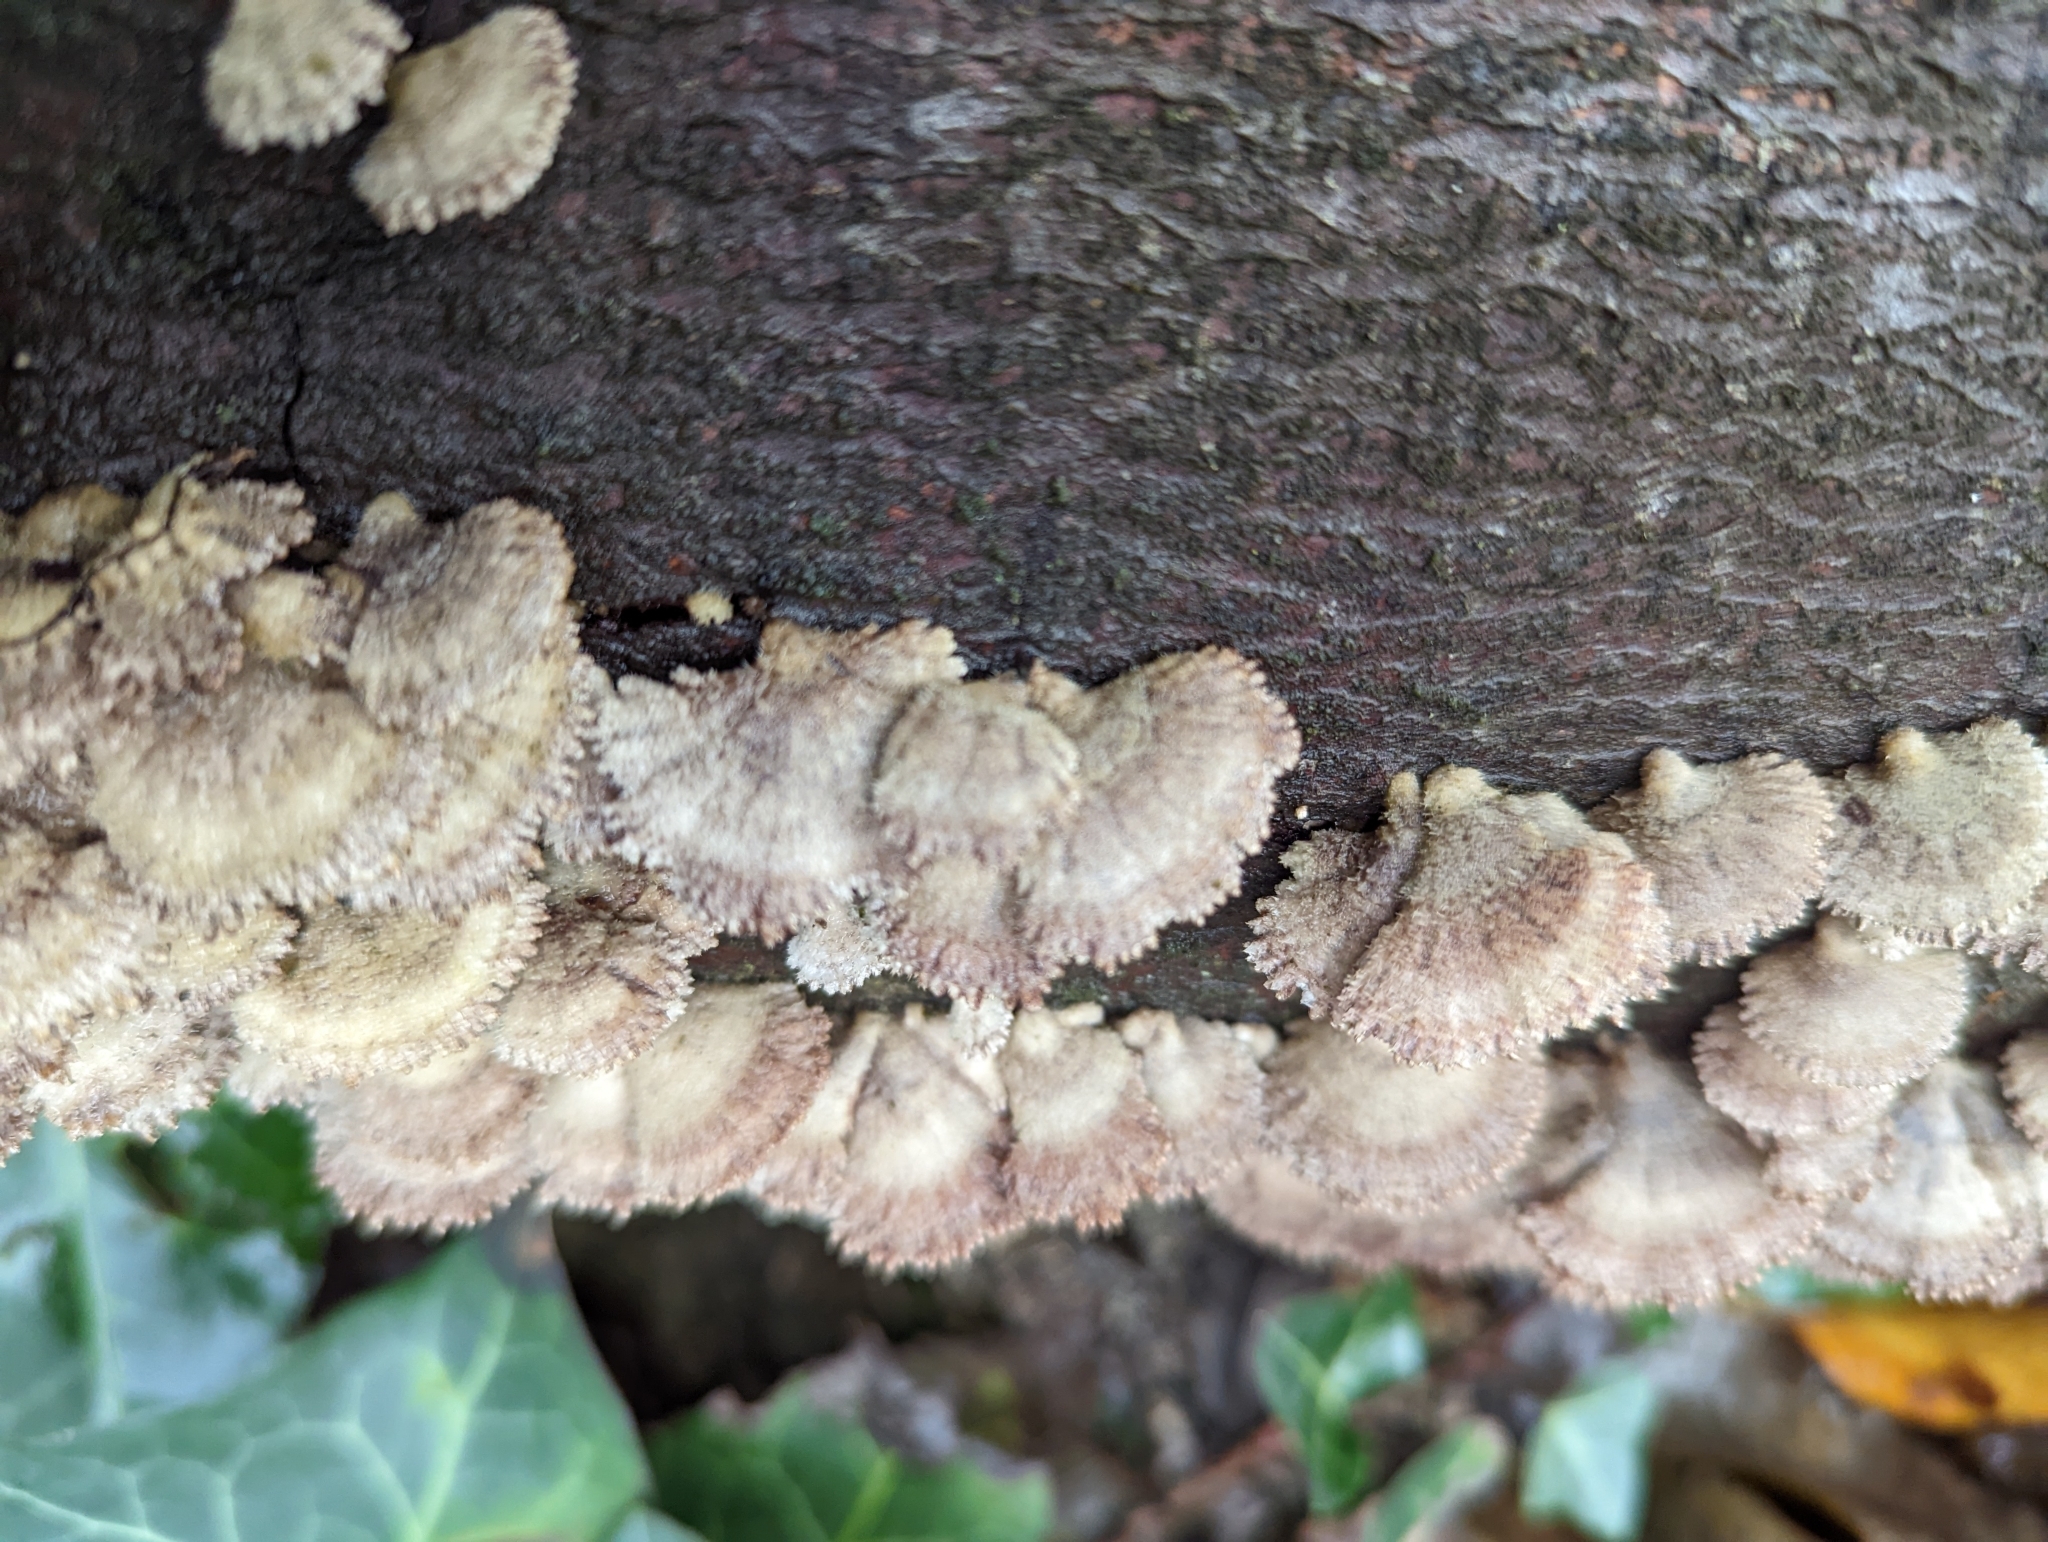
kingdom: Fungi
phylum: Basidiomycota
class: Agaricomycetes
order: Agaricales
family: Schizophyllaceae
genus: Schizophyllum
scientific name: Schizophyllum commune
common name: Common porecrust
